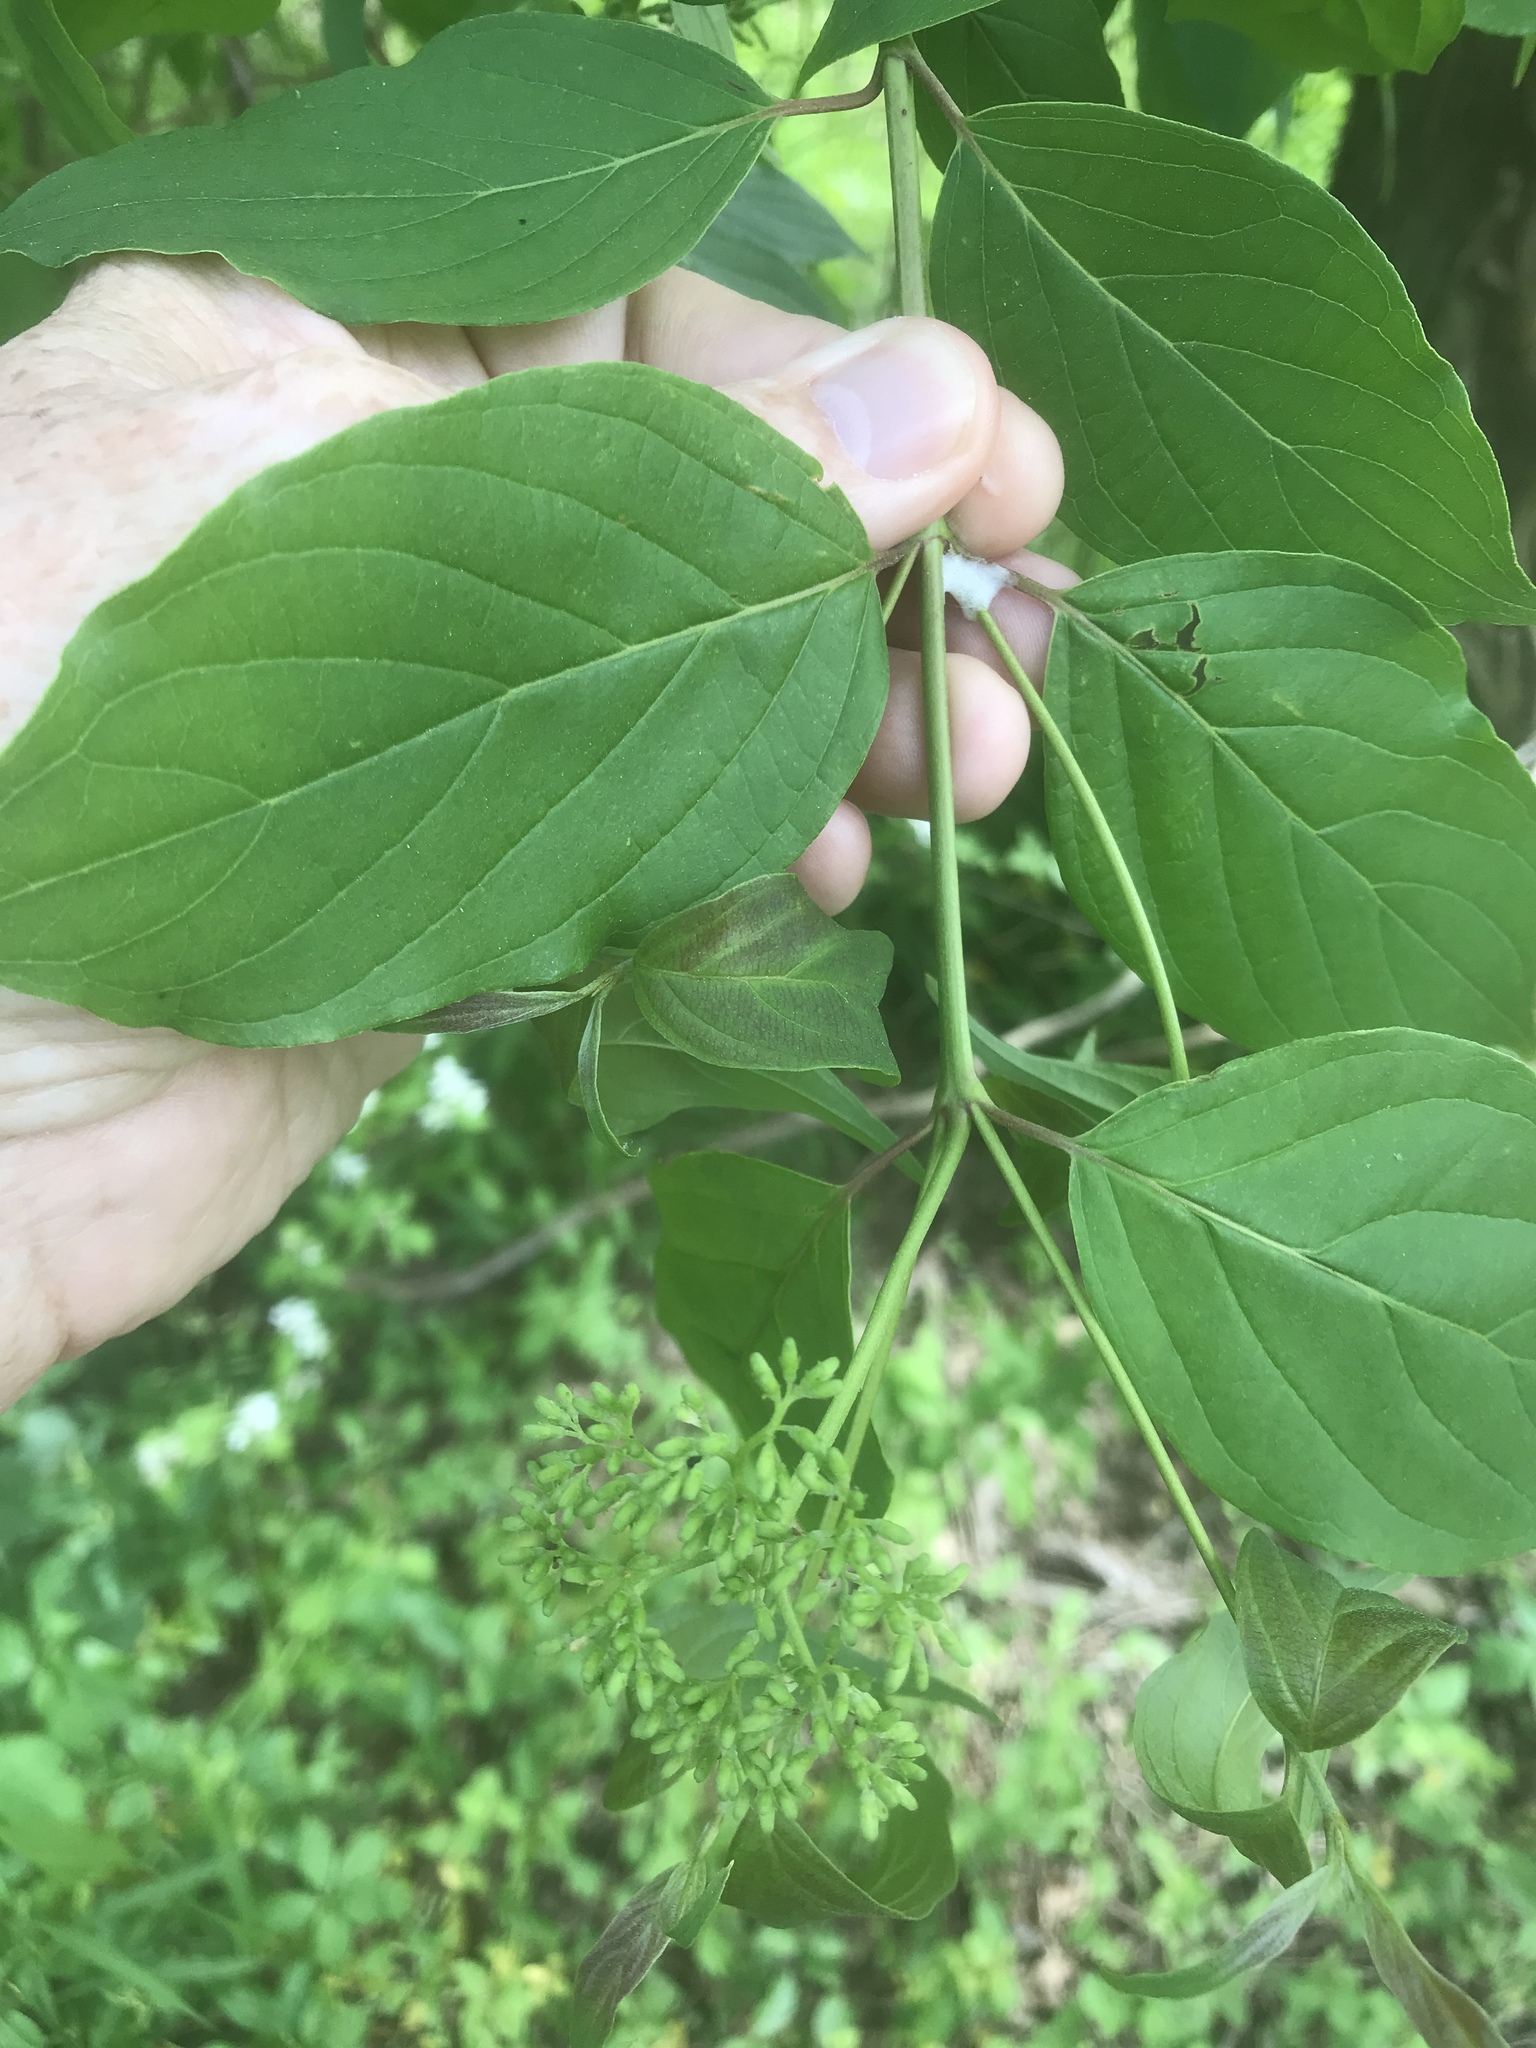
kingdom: Plantae
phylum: Tracheophyta
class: Magnoliopsida
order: Cornales
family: Cornaceae
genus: Cornus
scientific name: Cornus amomum
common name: Silky dogwood
